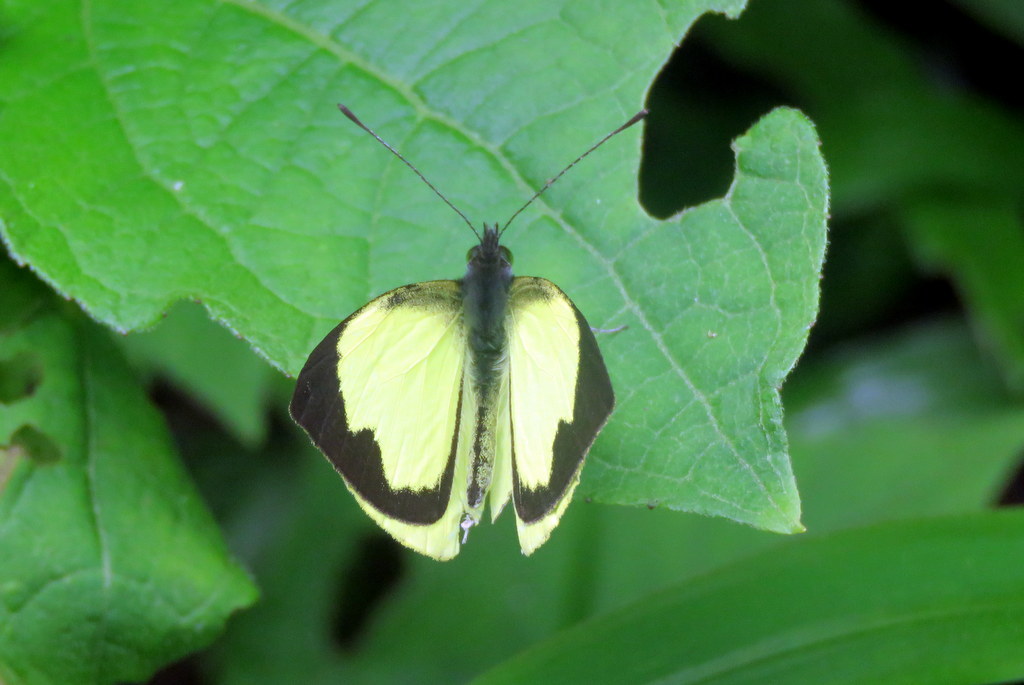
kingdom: Animalia
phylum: Arthropoda
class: Insecta
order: Lepidoptera
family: Pieridae
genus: Leptophobia
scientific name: Leptophobia diaguita
